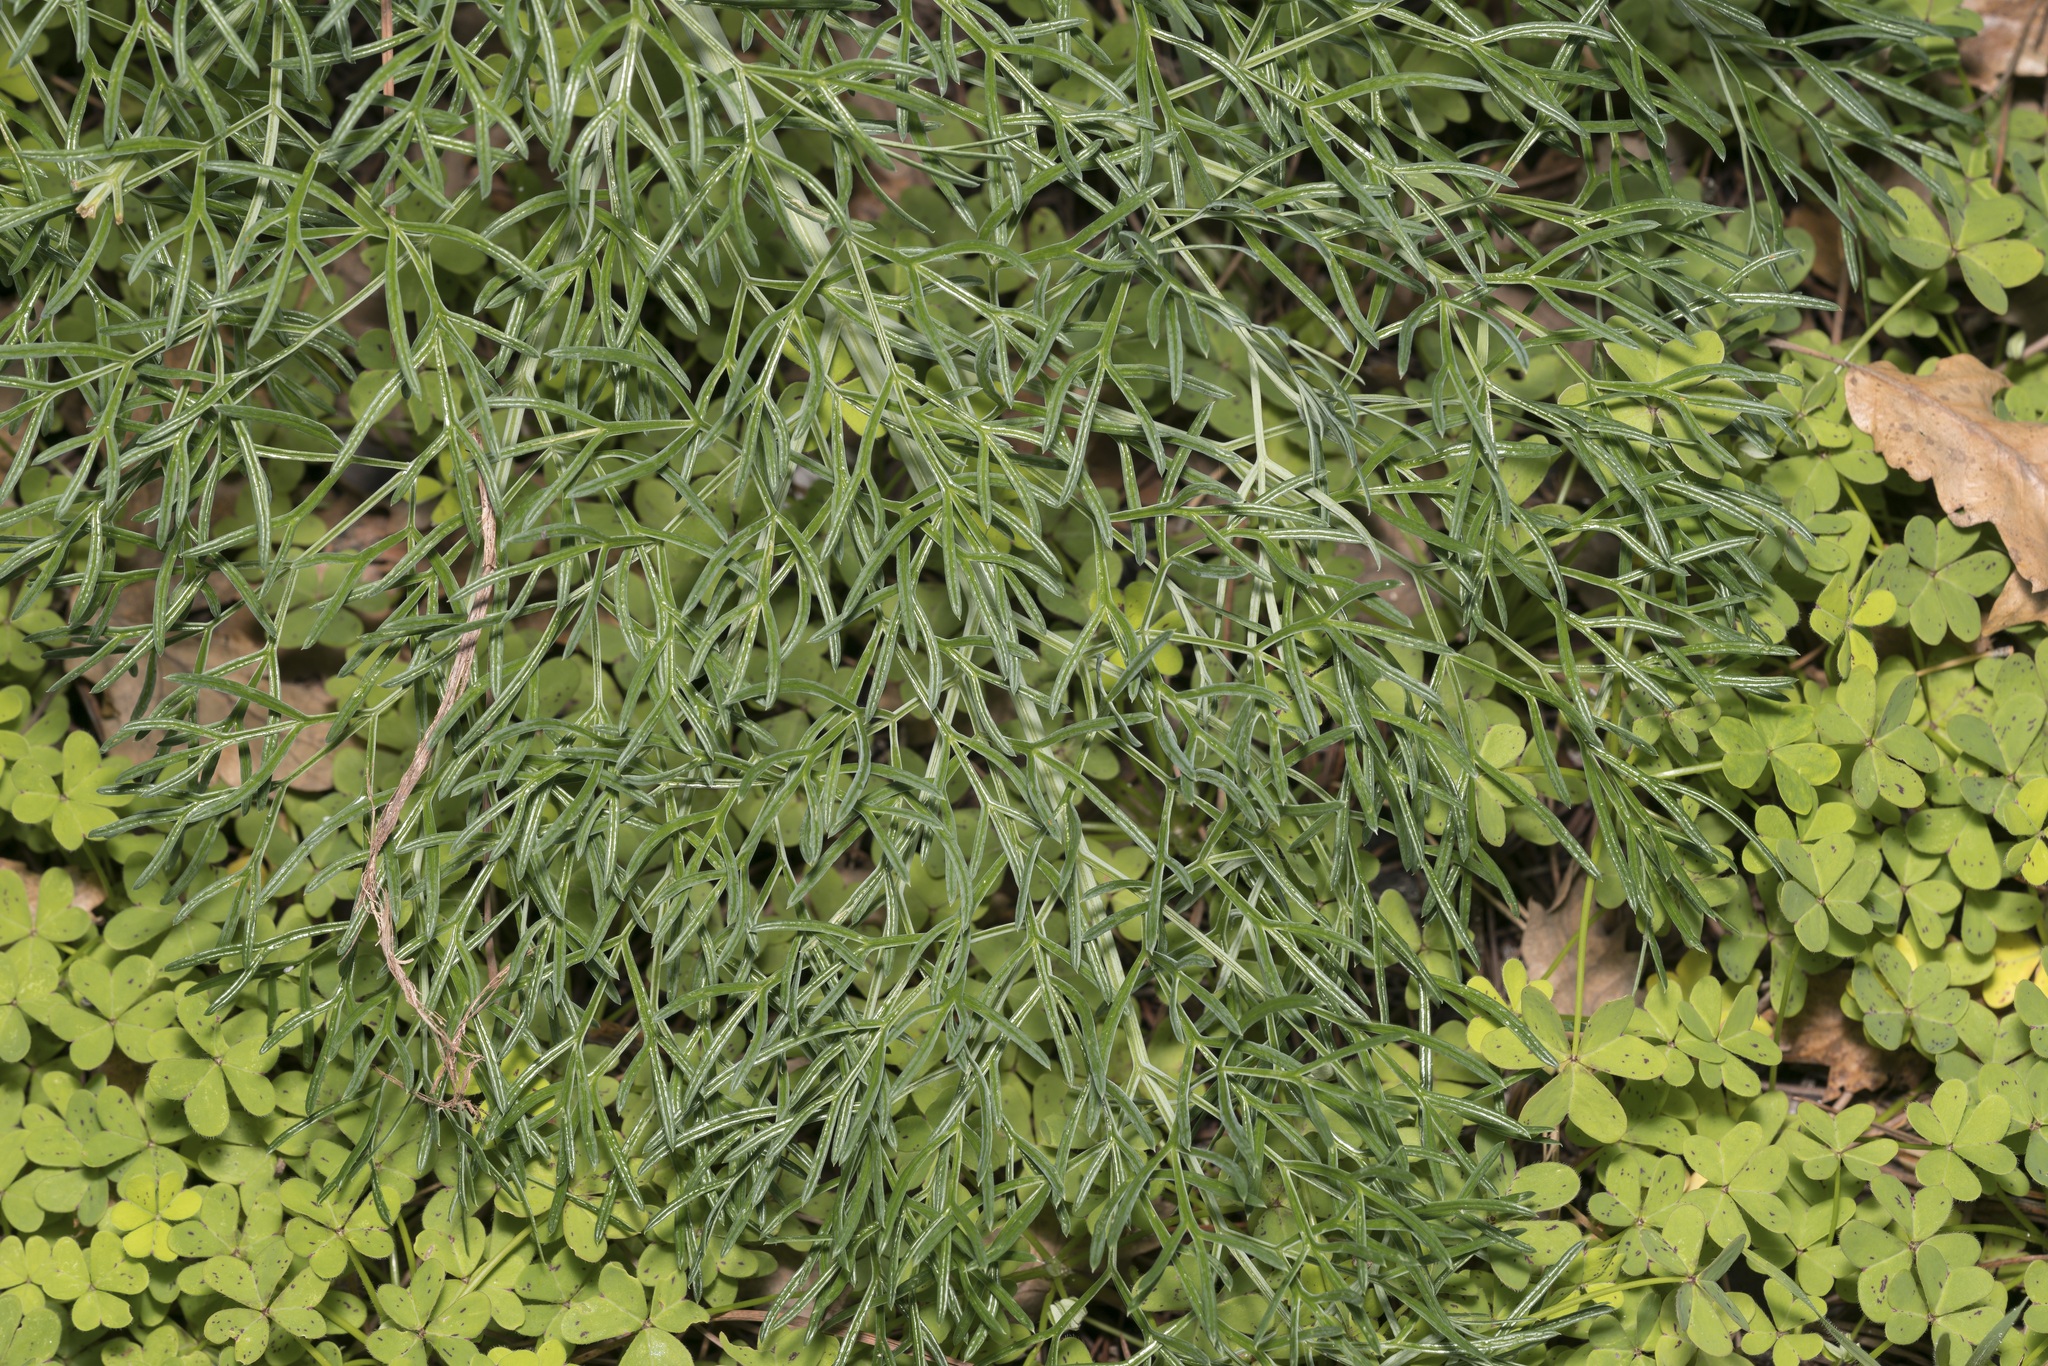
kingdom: Plantae
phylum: Tracheophyta
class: Magnoliopsida
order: Apiales
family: Apiaceae
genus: Ferula
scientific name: Ferula glauca
